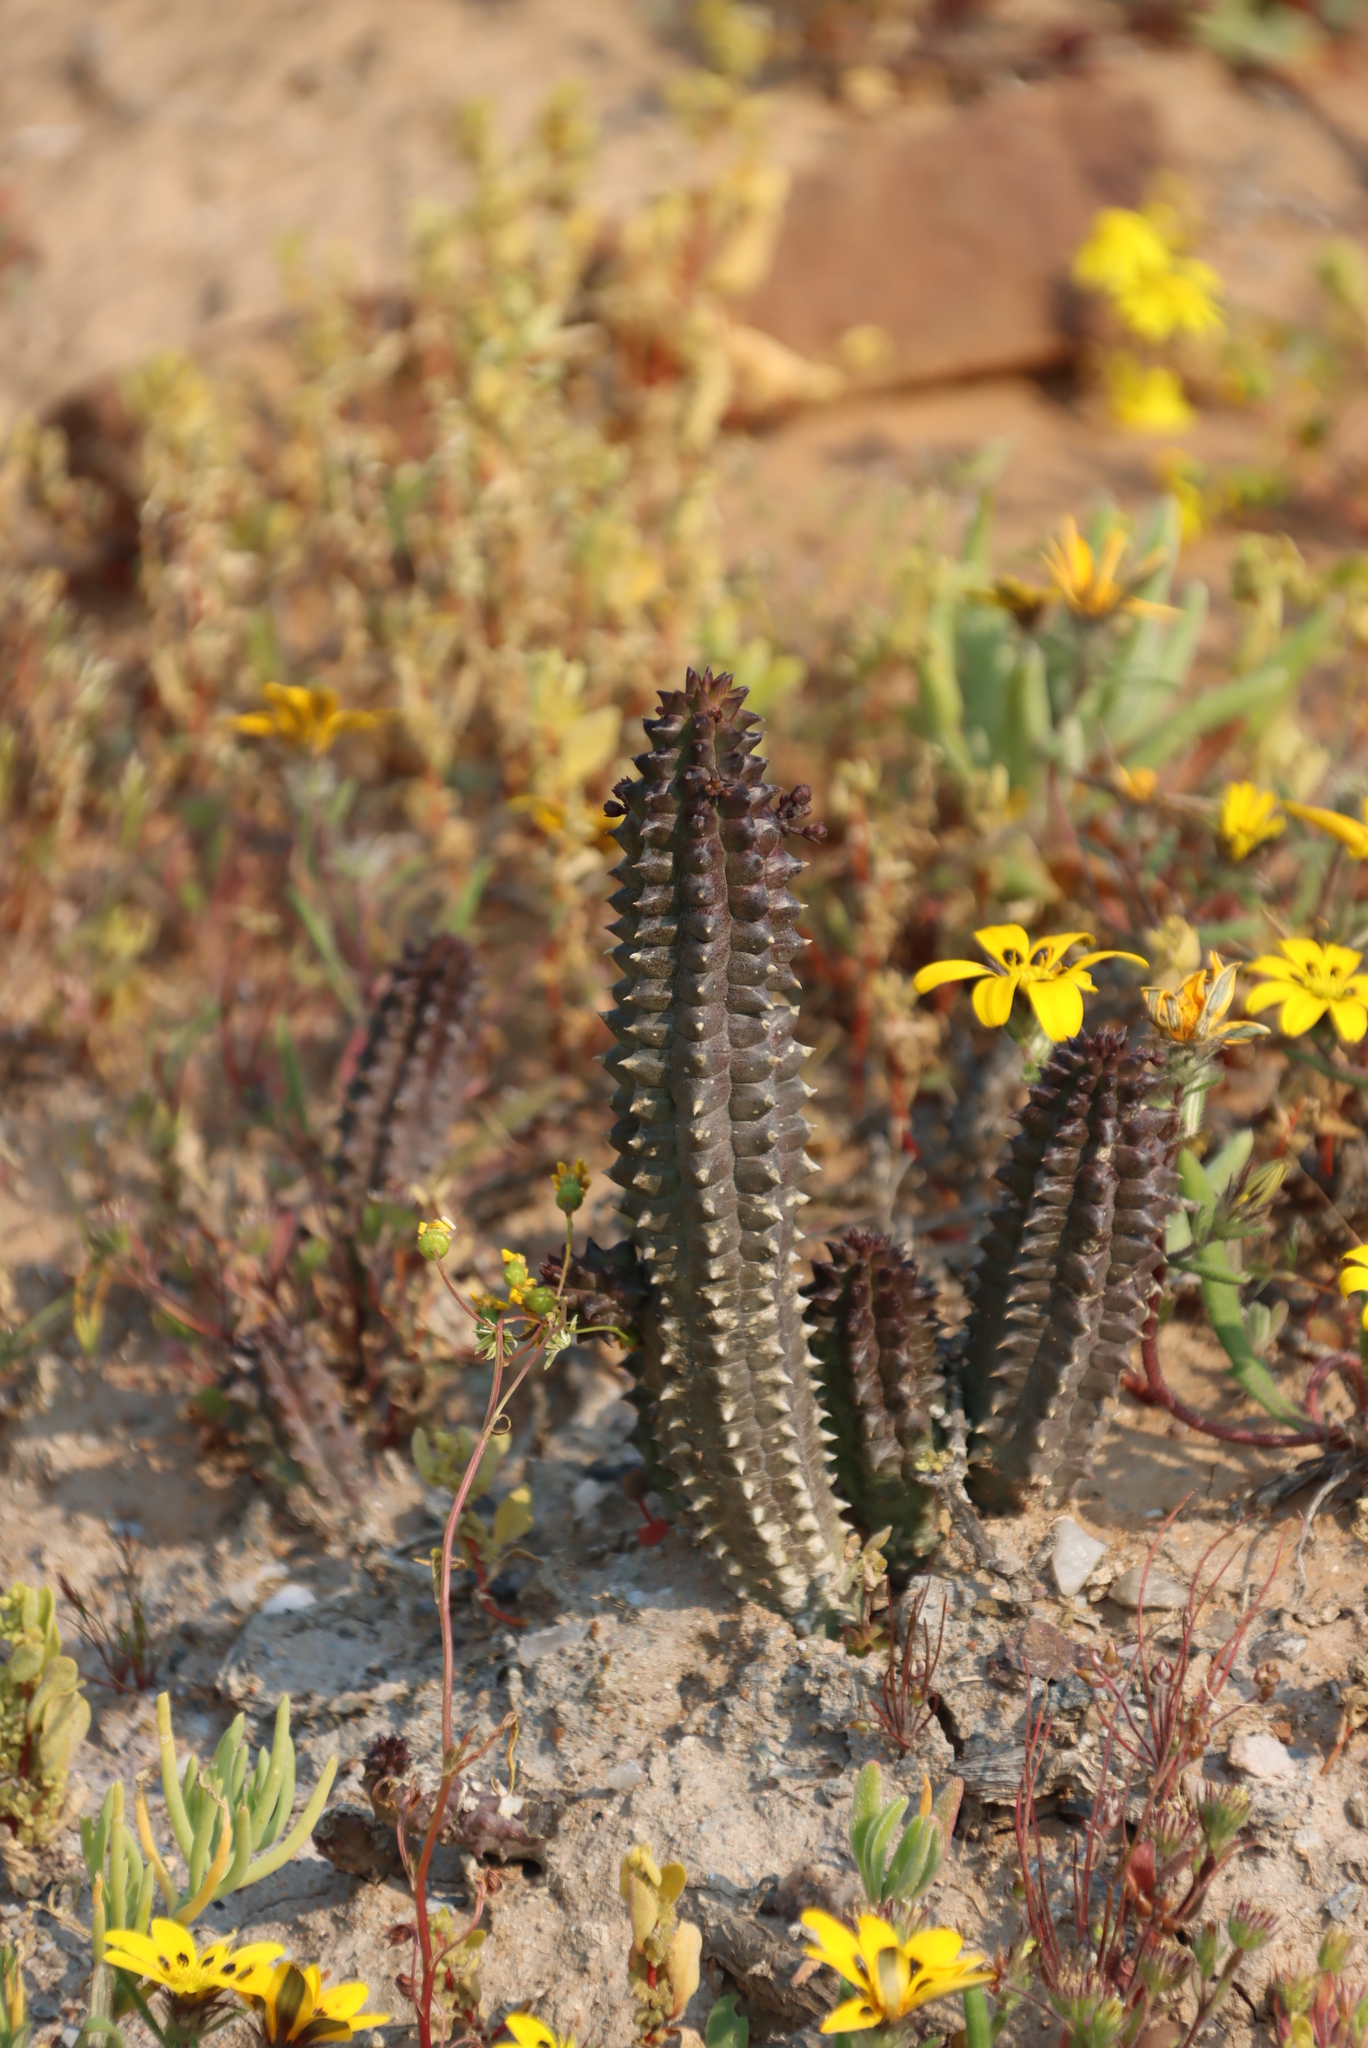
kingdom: Plantae
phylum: Tracheophyta
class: Magnoliopsida
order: Gentianales
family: Apocynaceae
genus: Ceropegia
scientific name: Ceropegia columnaris
